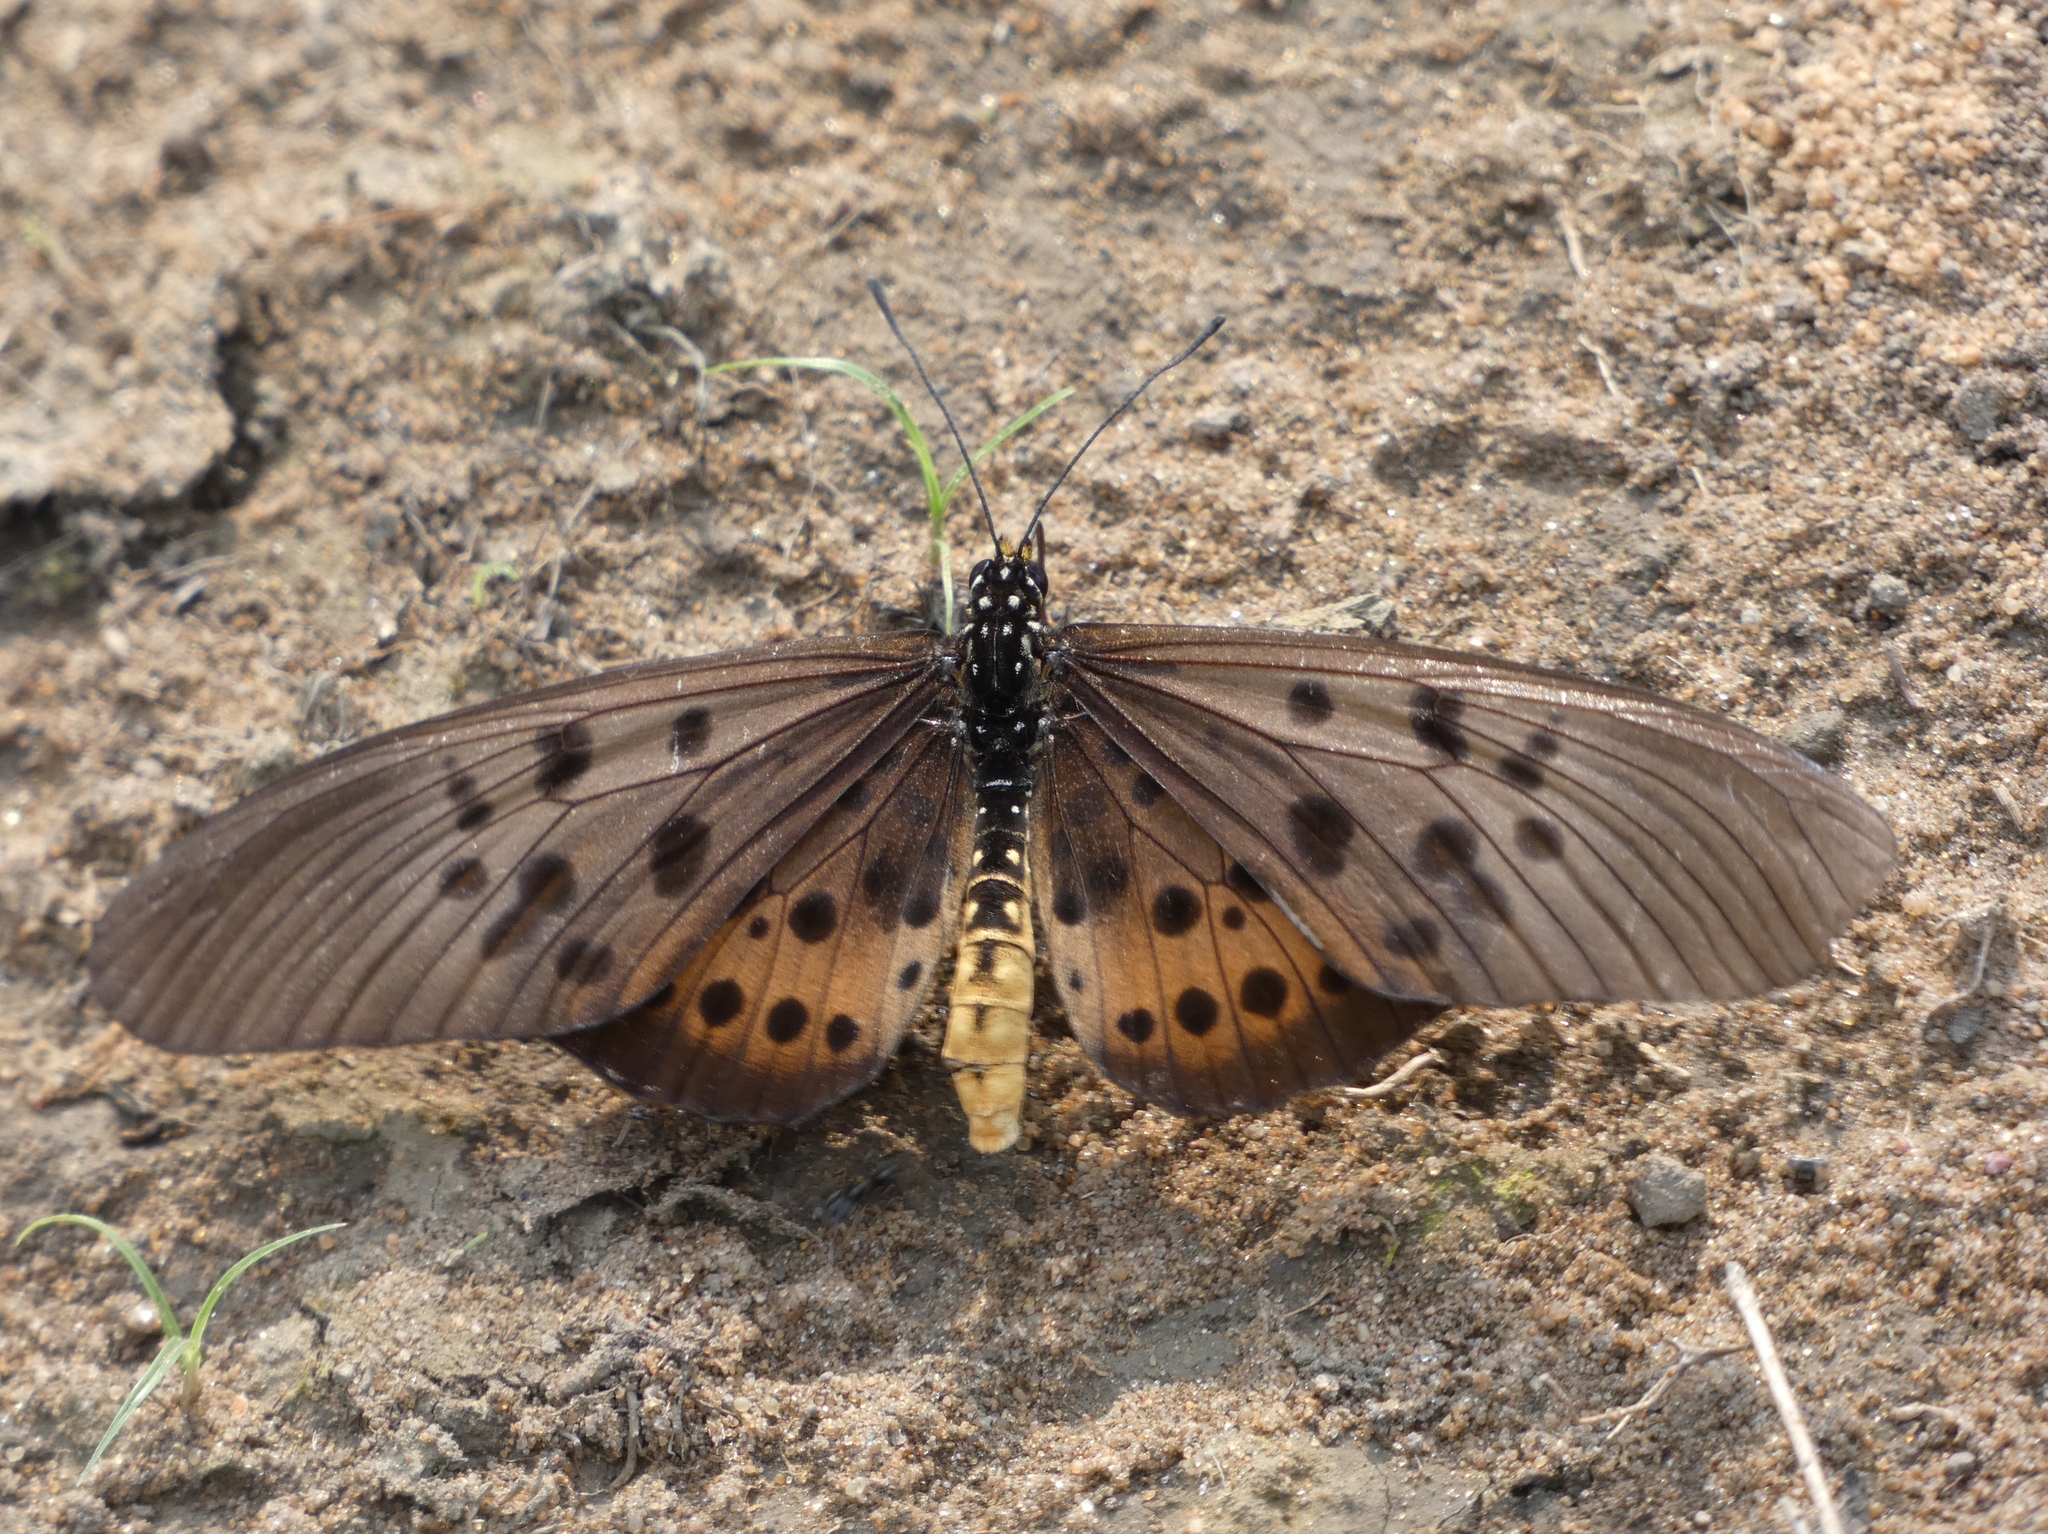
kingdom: Animalia
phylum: Arthropoda
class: Insecta
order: Lepidoptera
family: Nymphalidae
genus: Stephenia
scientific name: Stephenia
